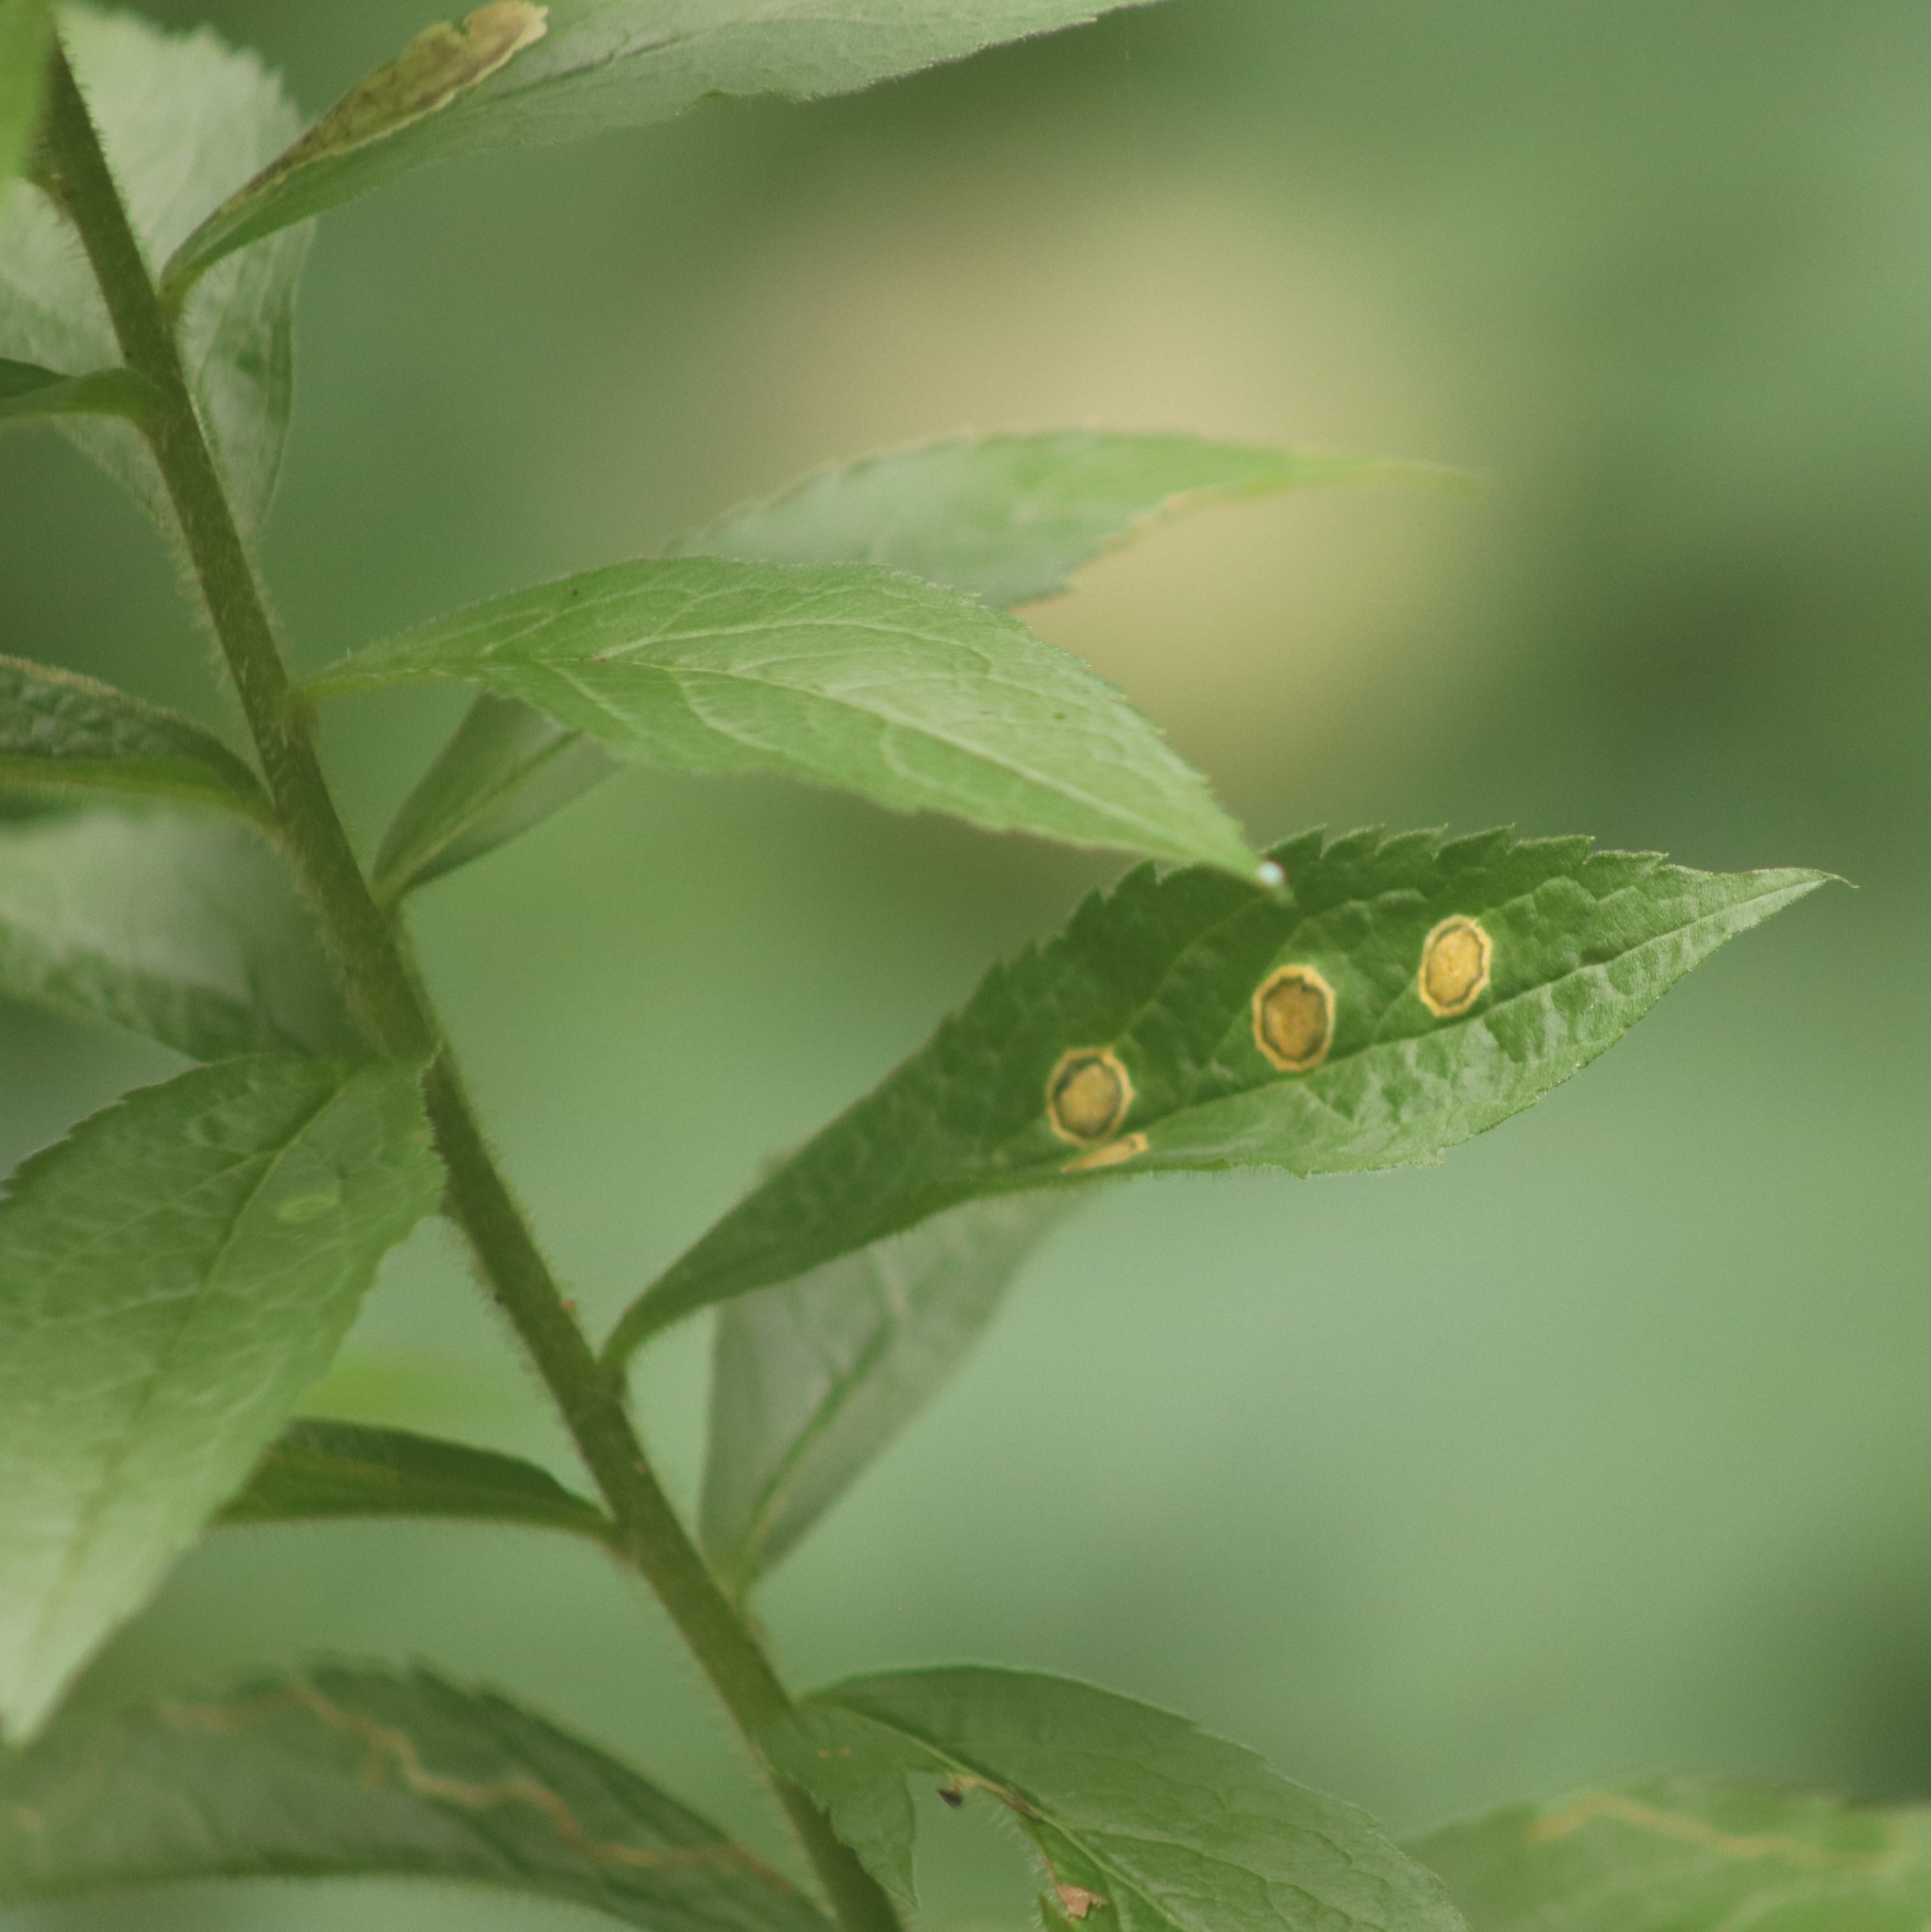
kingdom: Animalia
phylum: Arthropoda
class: Insecta
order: Diptera
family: Cecidomyiidae
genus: Asteromyia
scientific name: Asteromyia carbonifera
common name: Carbonifera goldenrod gall midge
